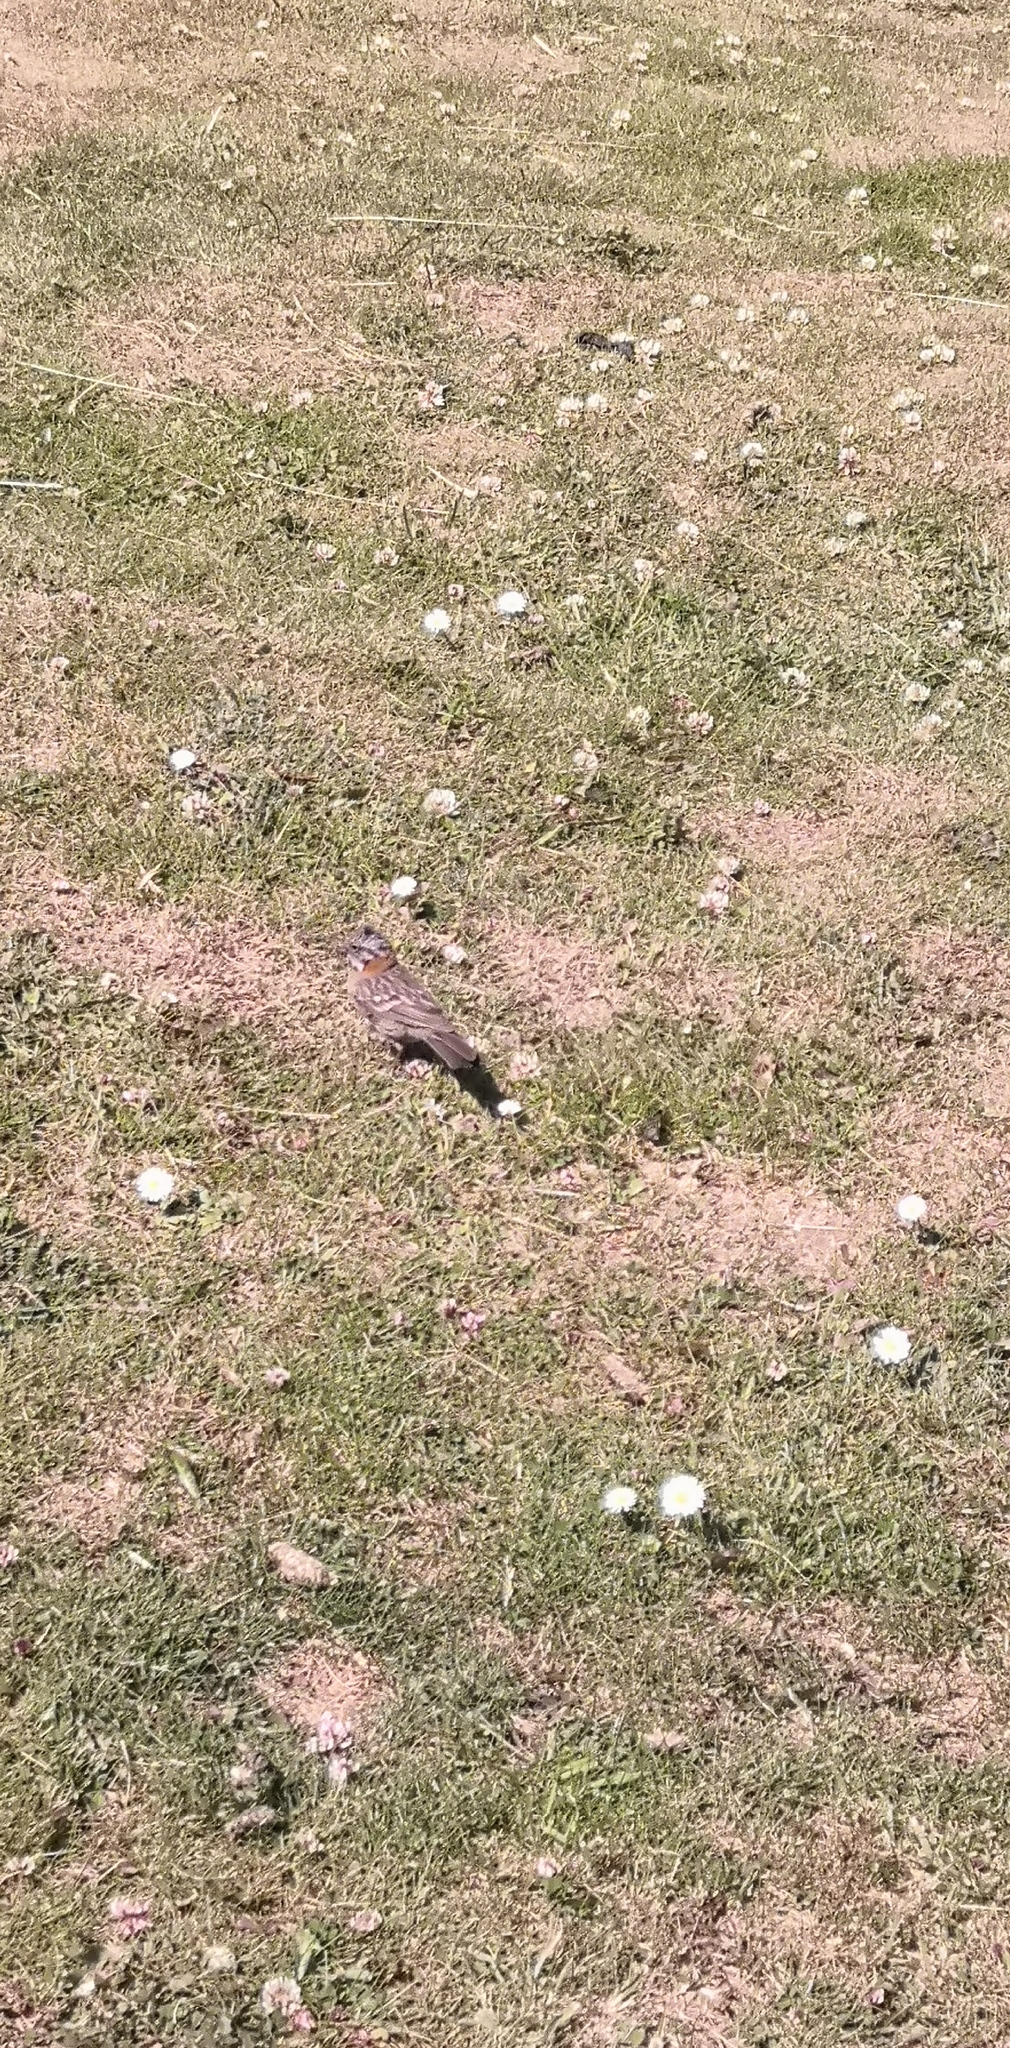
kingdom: Animalia
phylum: Chordata
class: Aves
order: Passeriformes
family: Passerellidae
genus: Zonotrichia
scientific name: Zonotrichia capensis
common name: Rufous-collared sparrow
